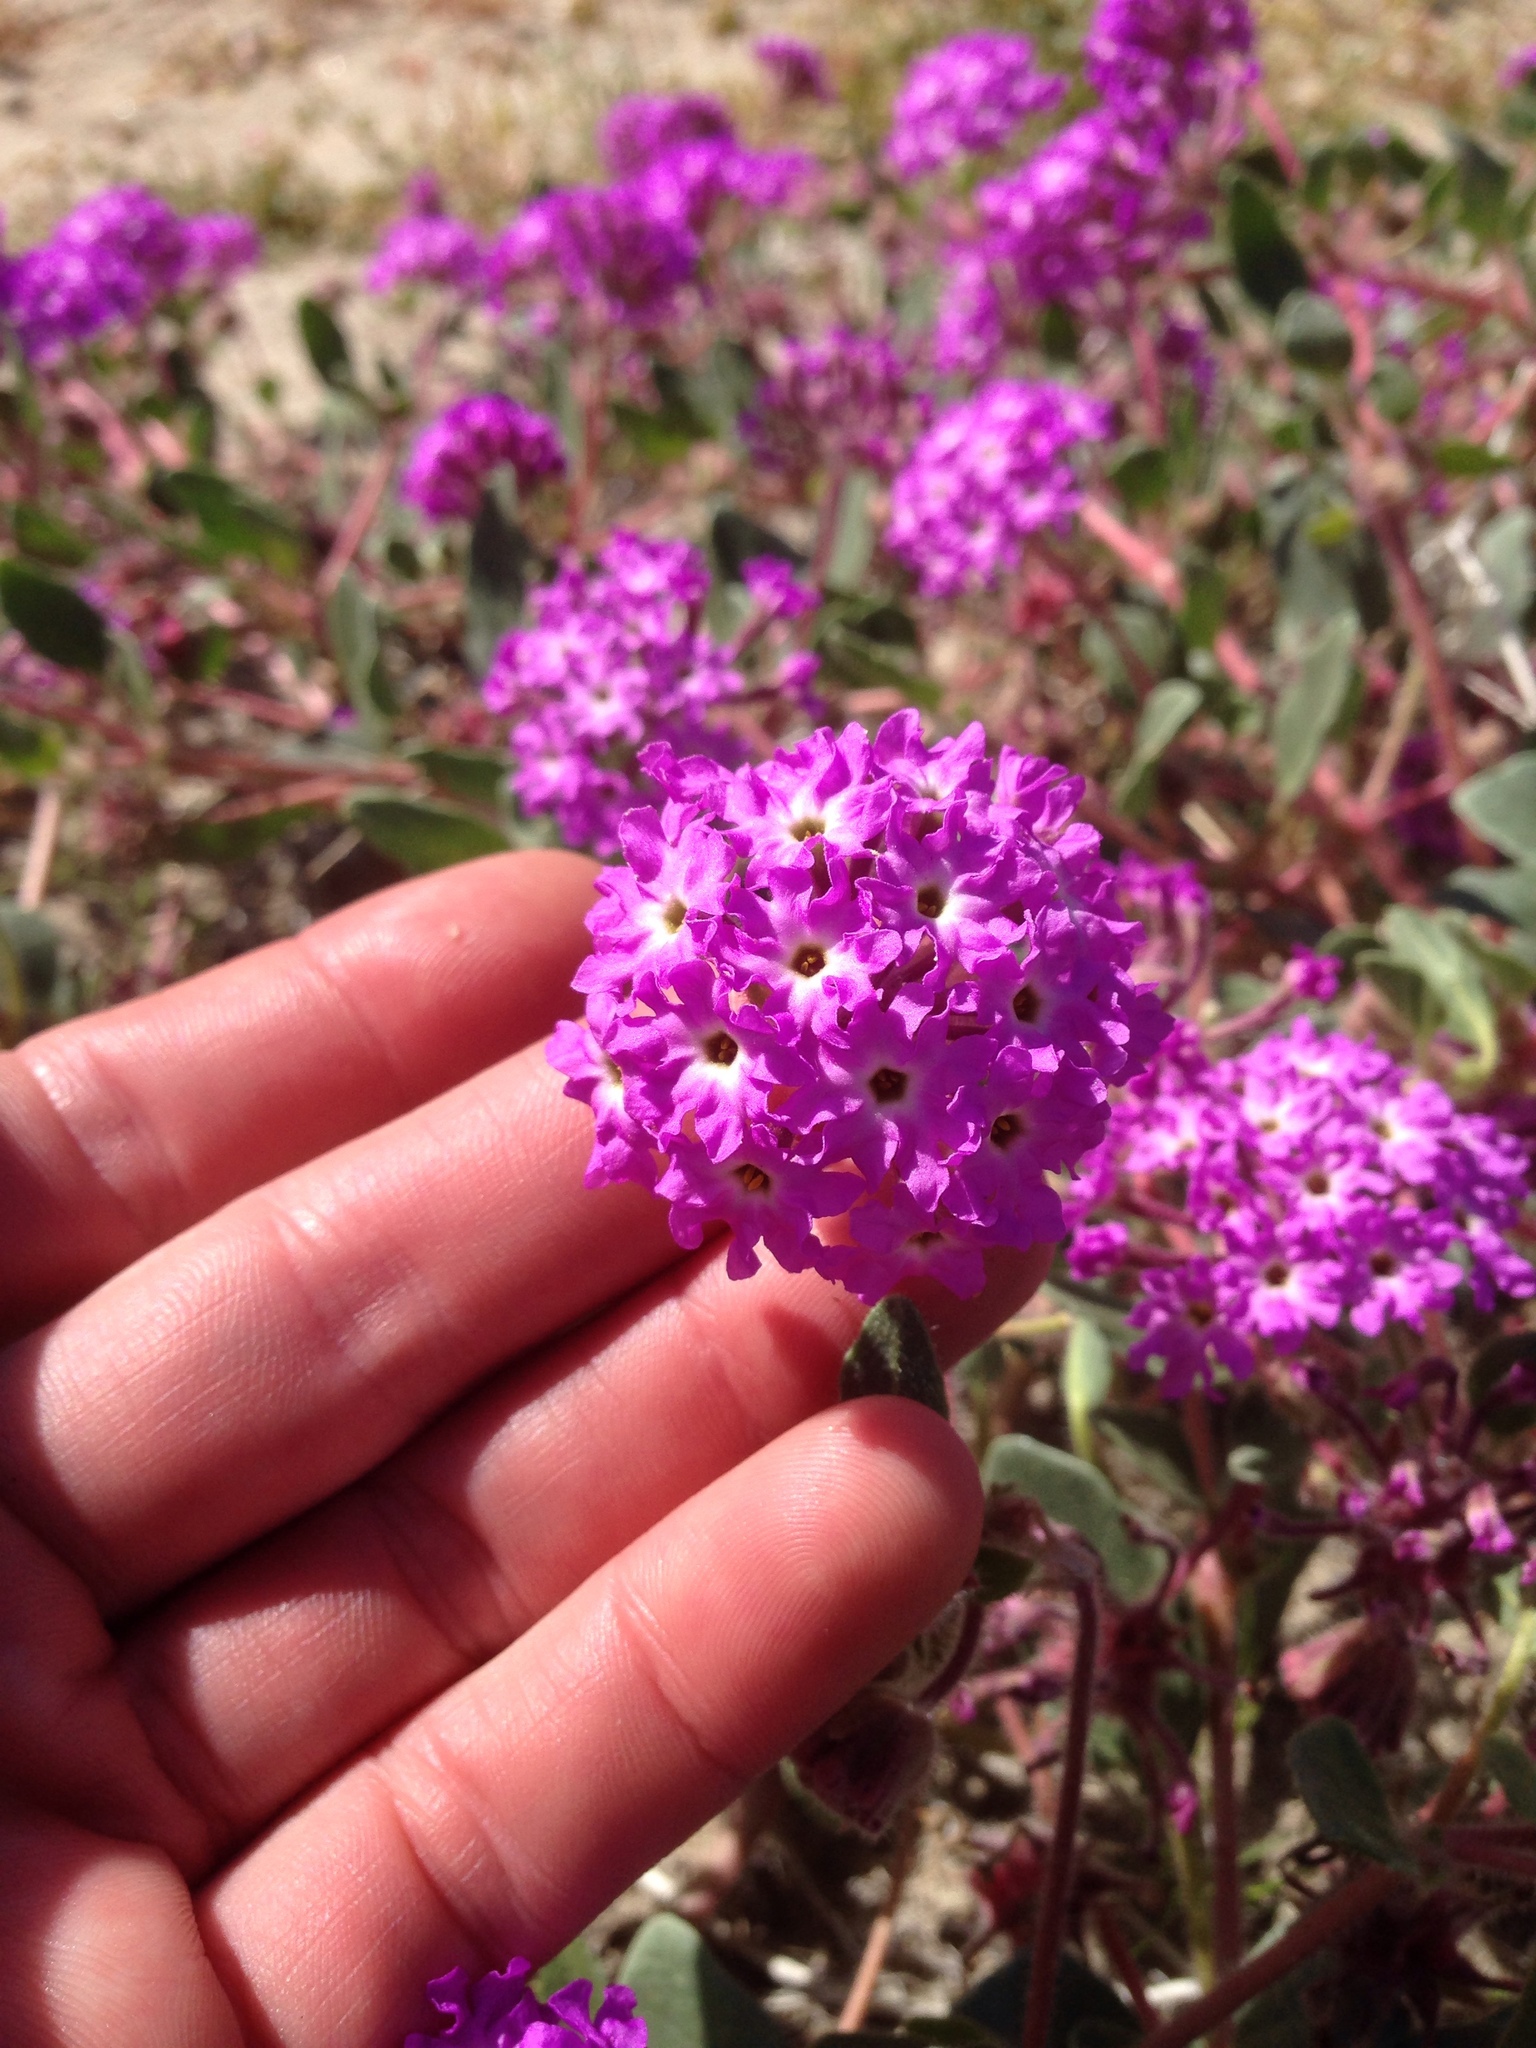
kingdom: Plantae
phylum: Tracheophyta
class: Magnoliopsida
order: Caryophyllales
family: Nyctaginaceae
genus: Abronia
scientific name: Abronia villosa
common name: Desert sand-verbena
